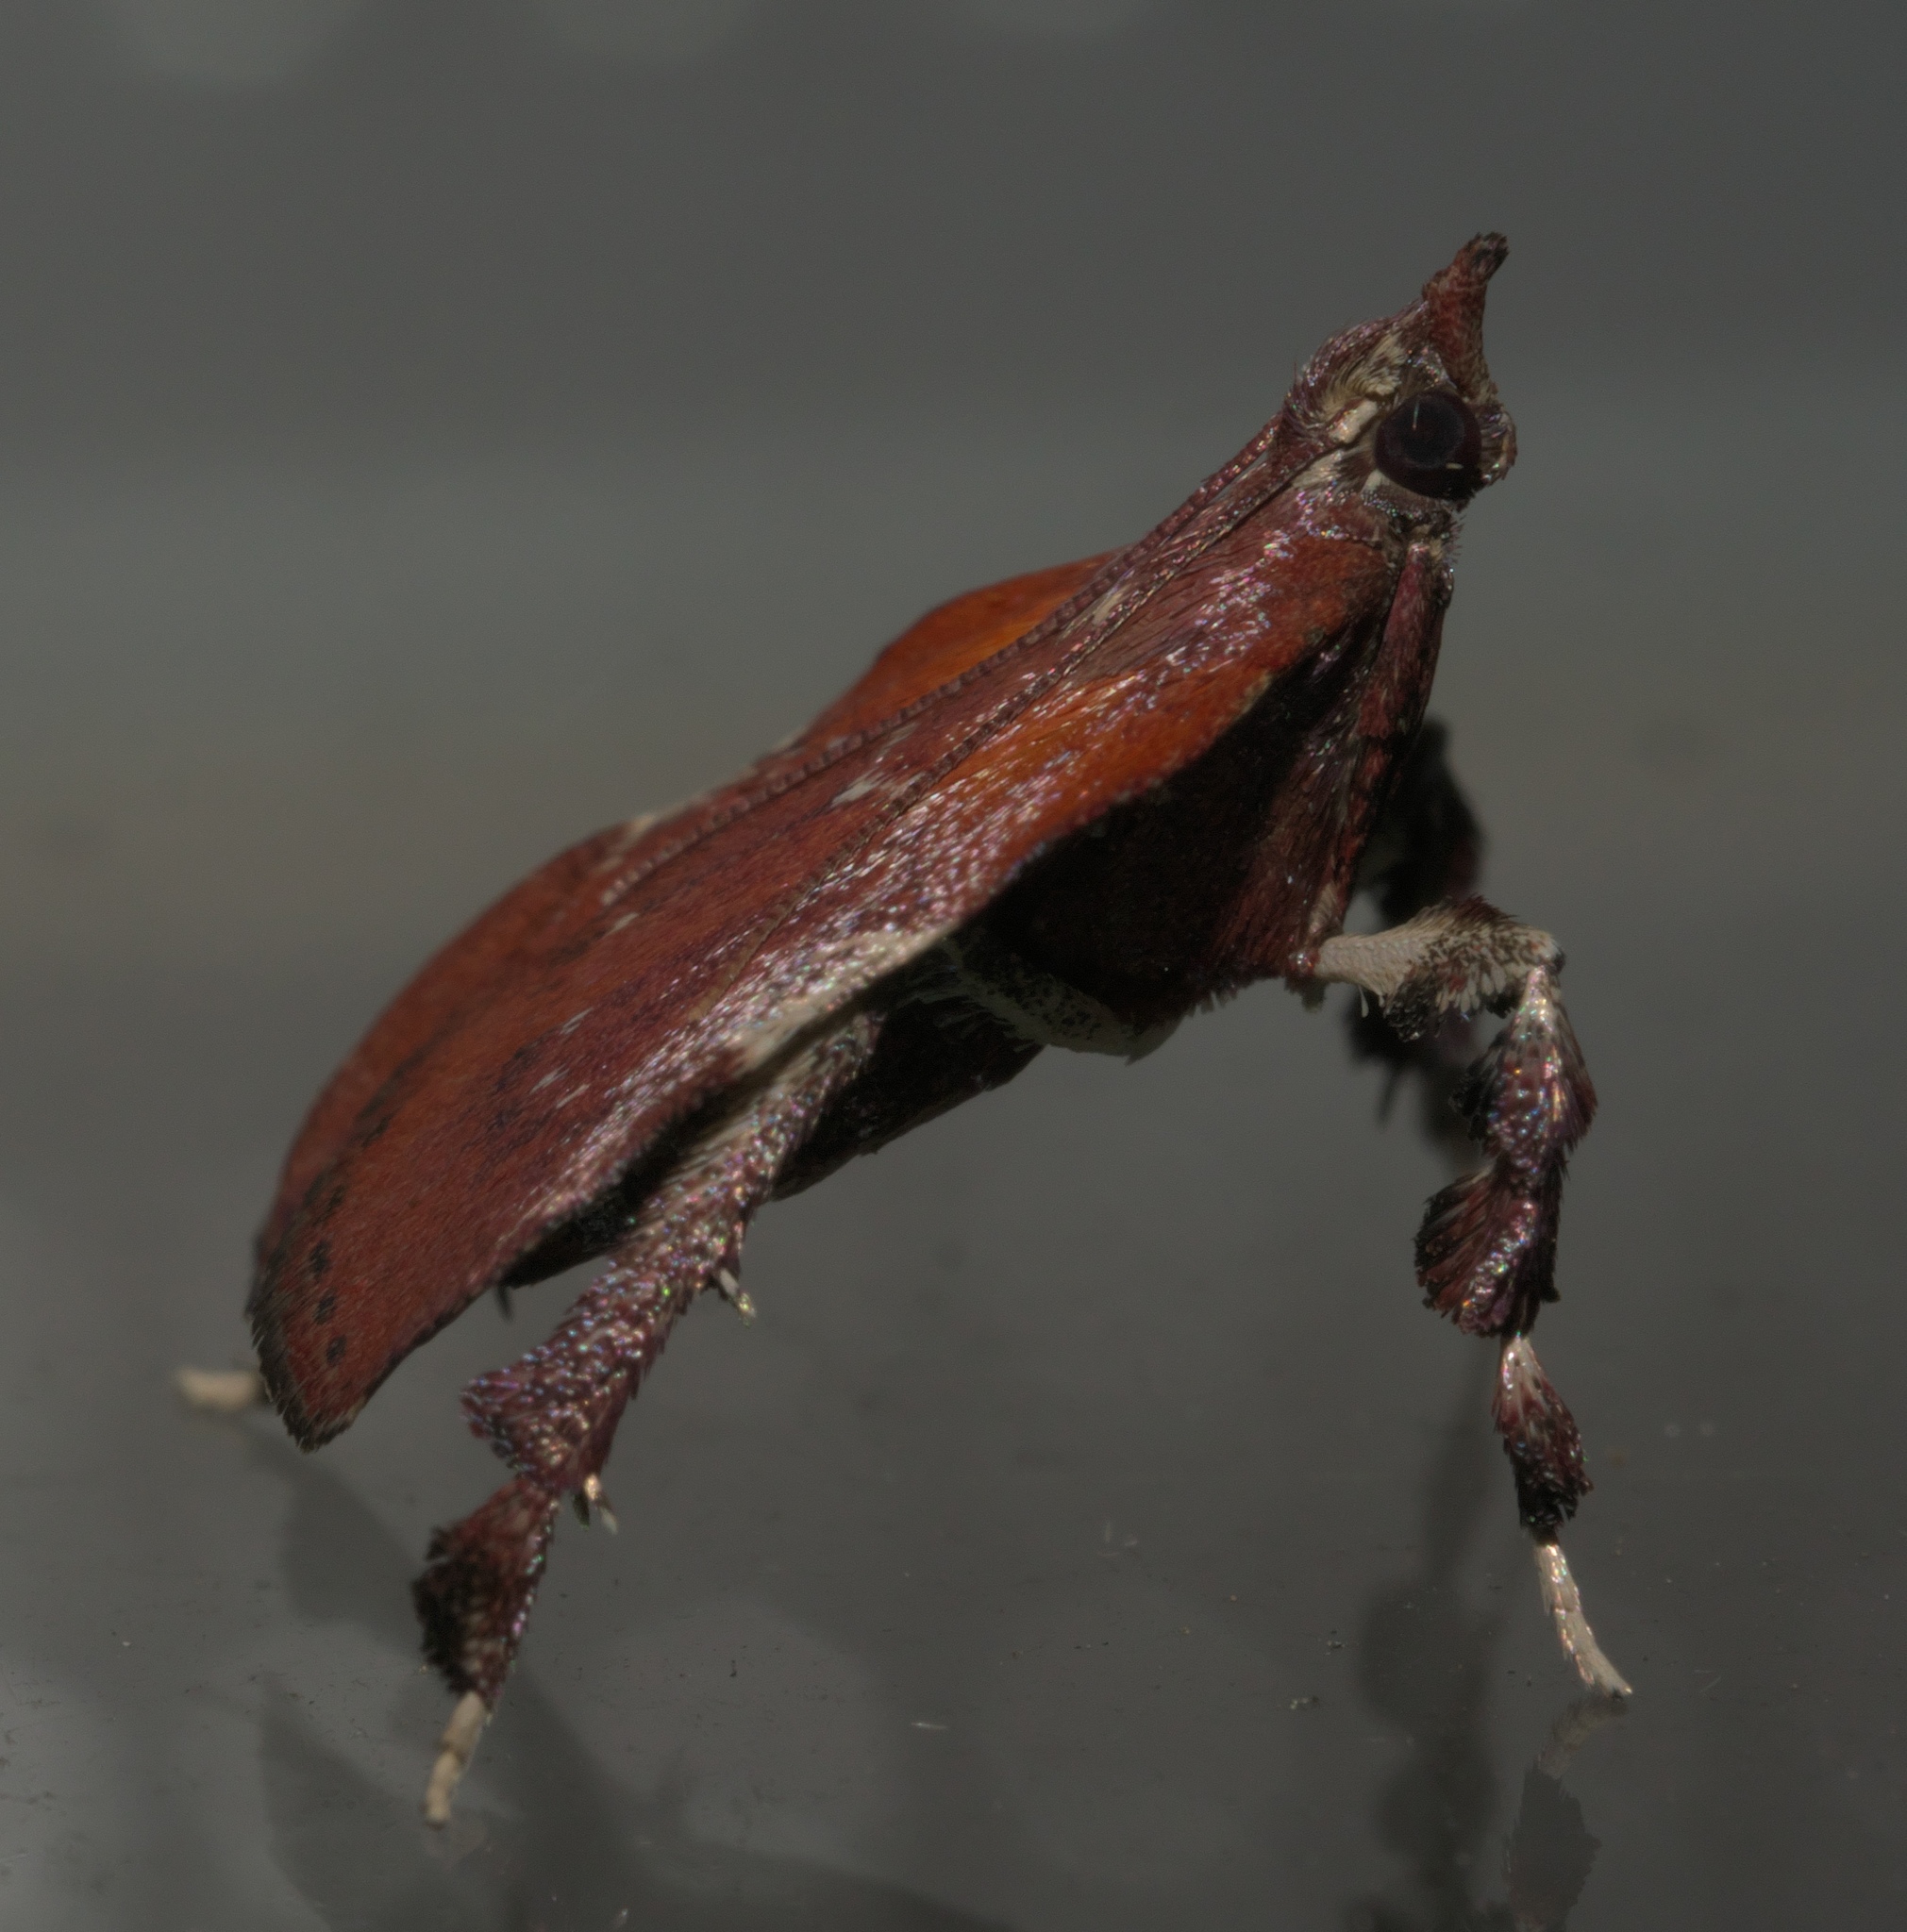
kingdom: Animalia
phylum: Arthropoda
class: Insecta
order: Lepidoptera
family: Pyralidae
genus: Galasa
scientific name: Galasa nigrinodis
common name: Boxwood leaftier moth
